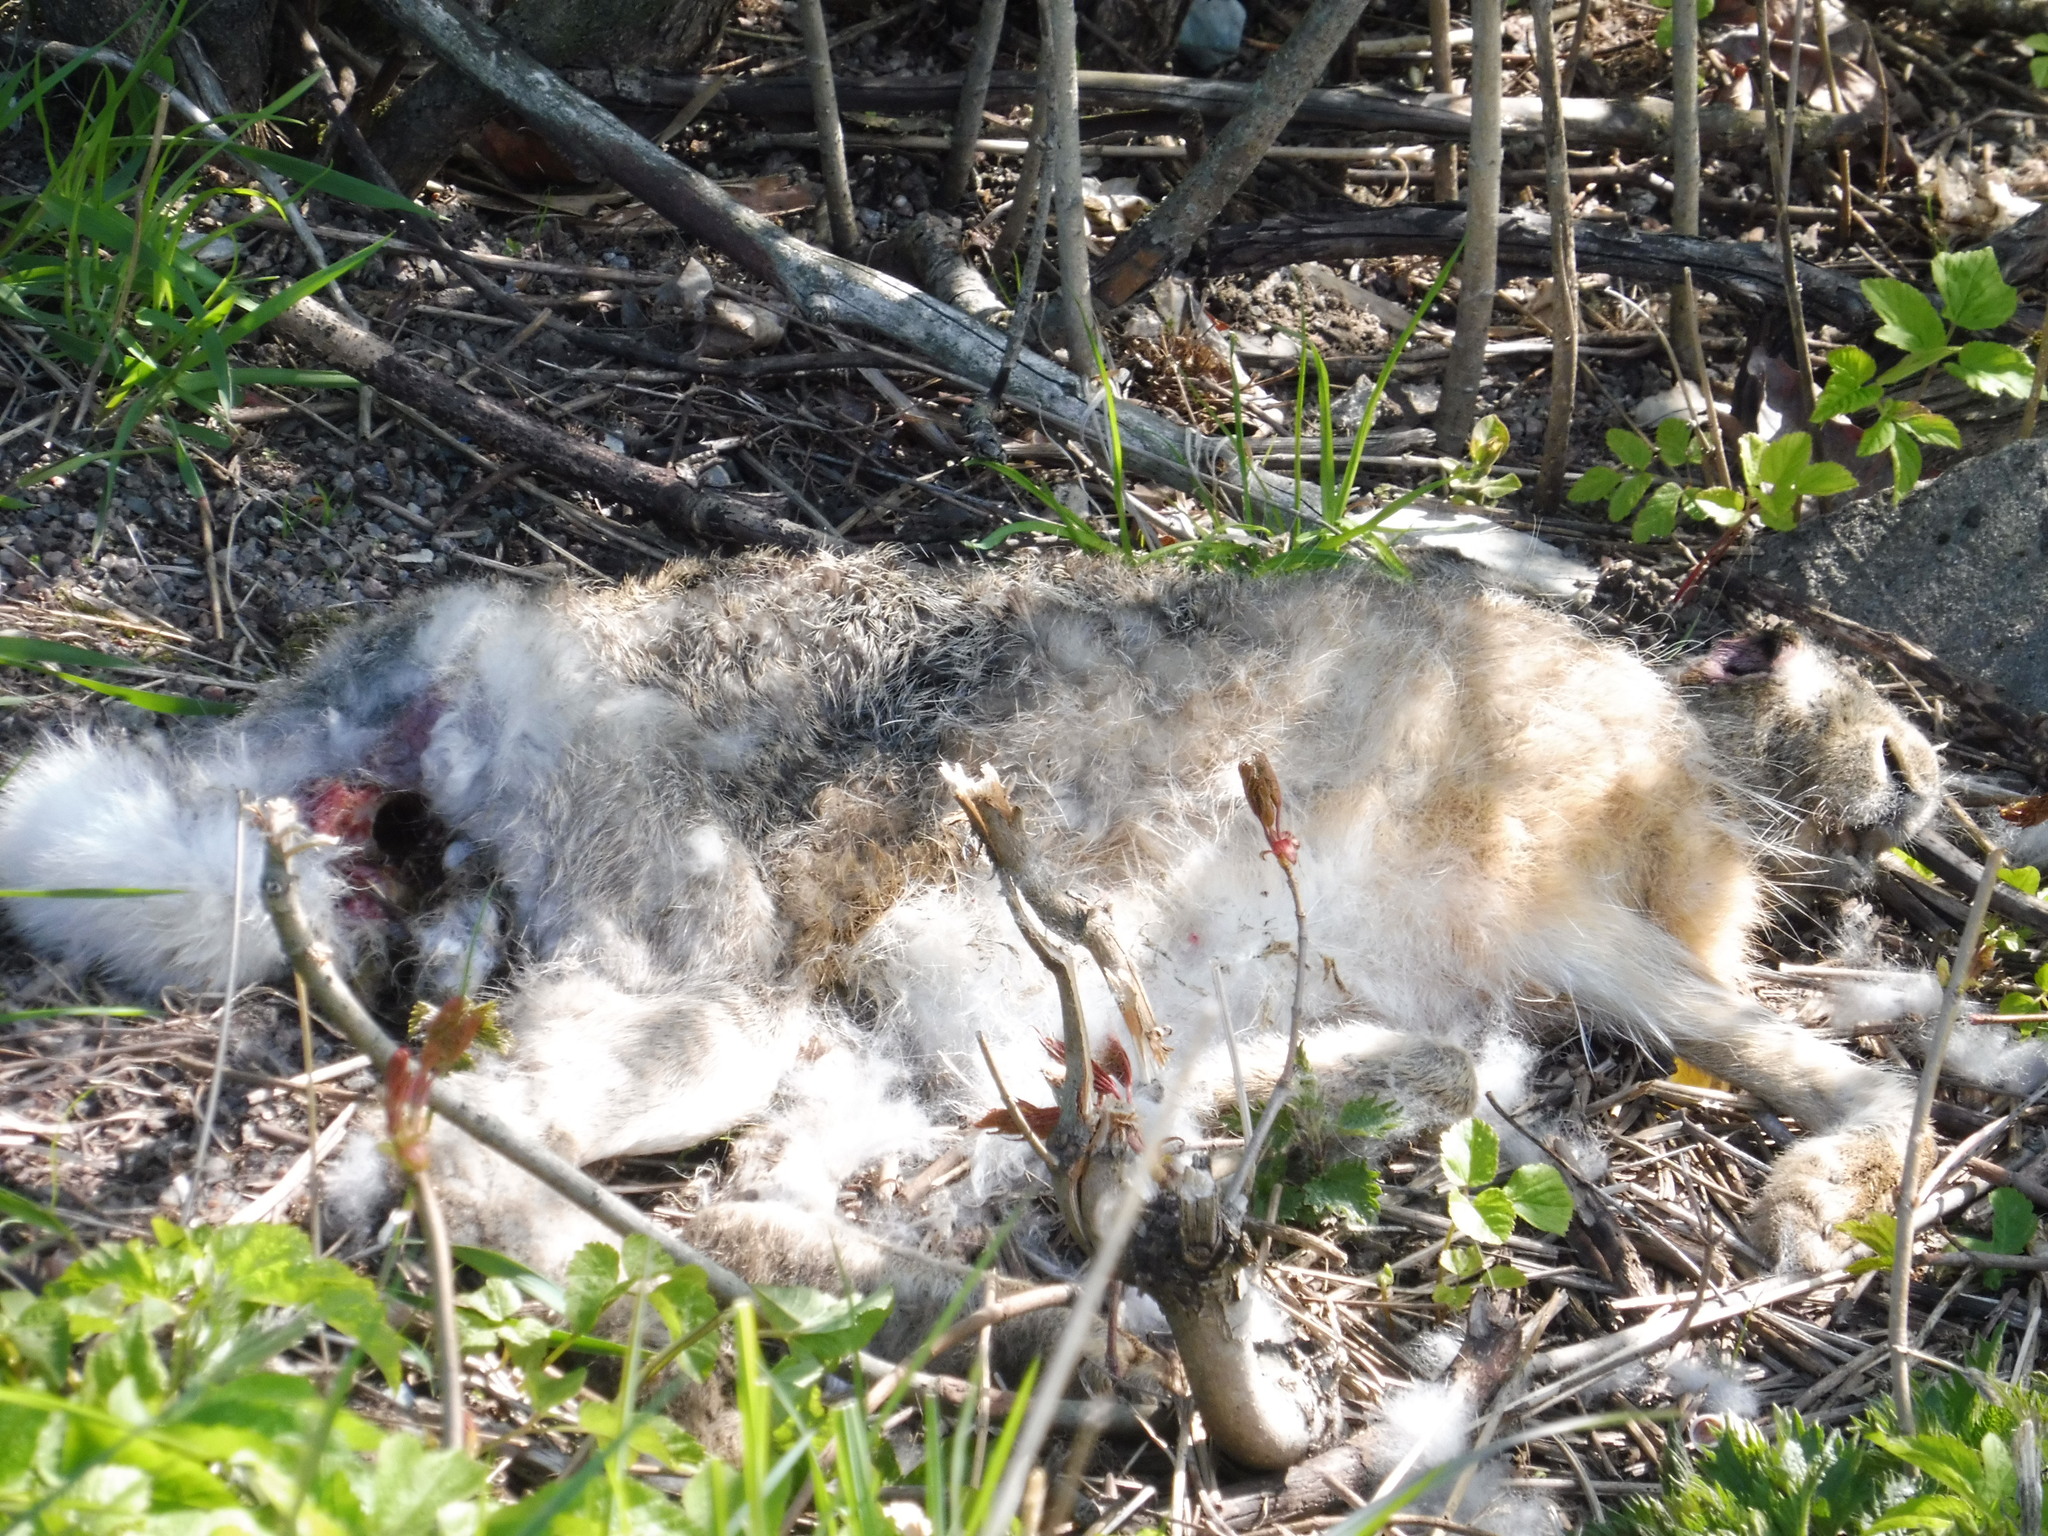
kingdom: Animalia
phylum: Chordata
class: Mammalia
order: Lagomorpha
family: Leporidae
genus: Lepus
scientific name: Lepus europaeus
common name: European hare
